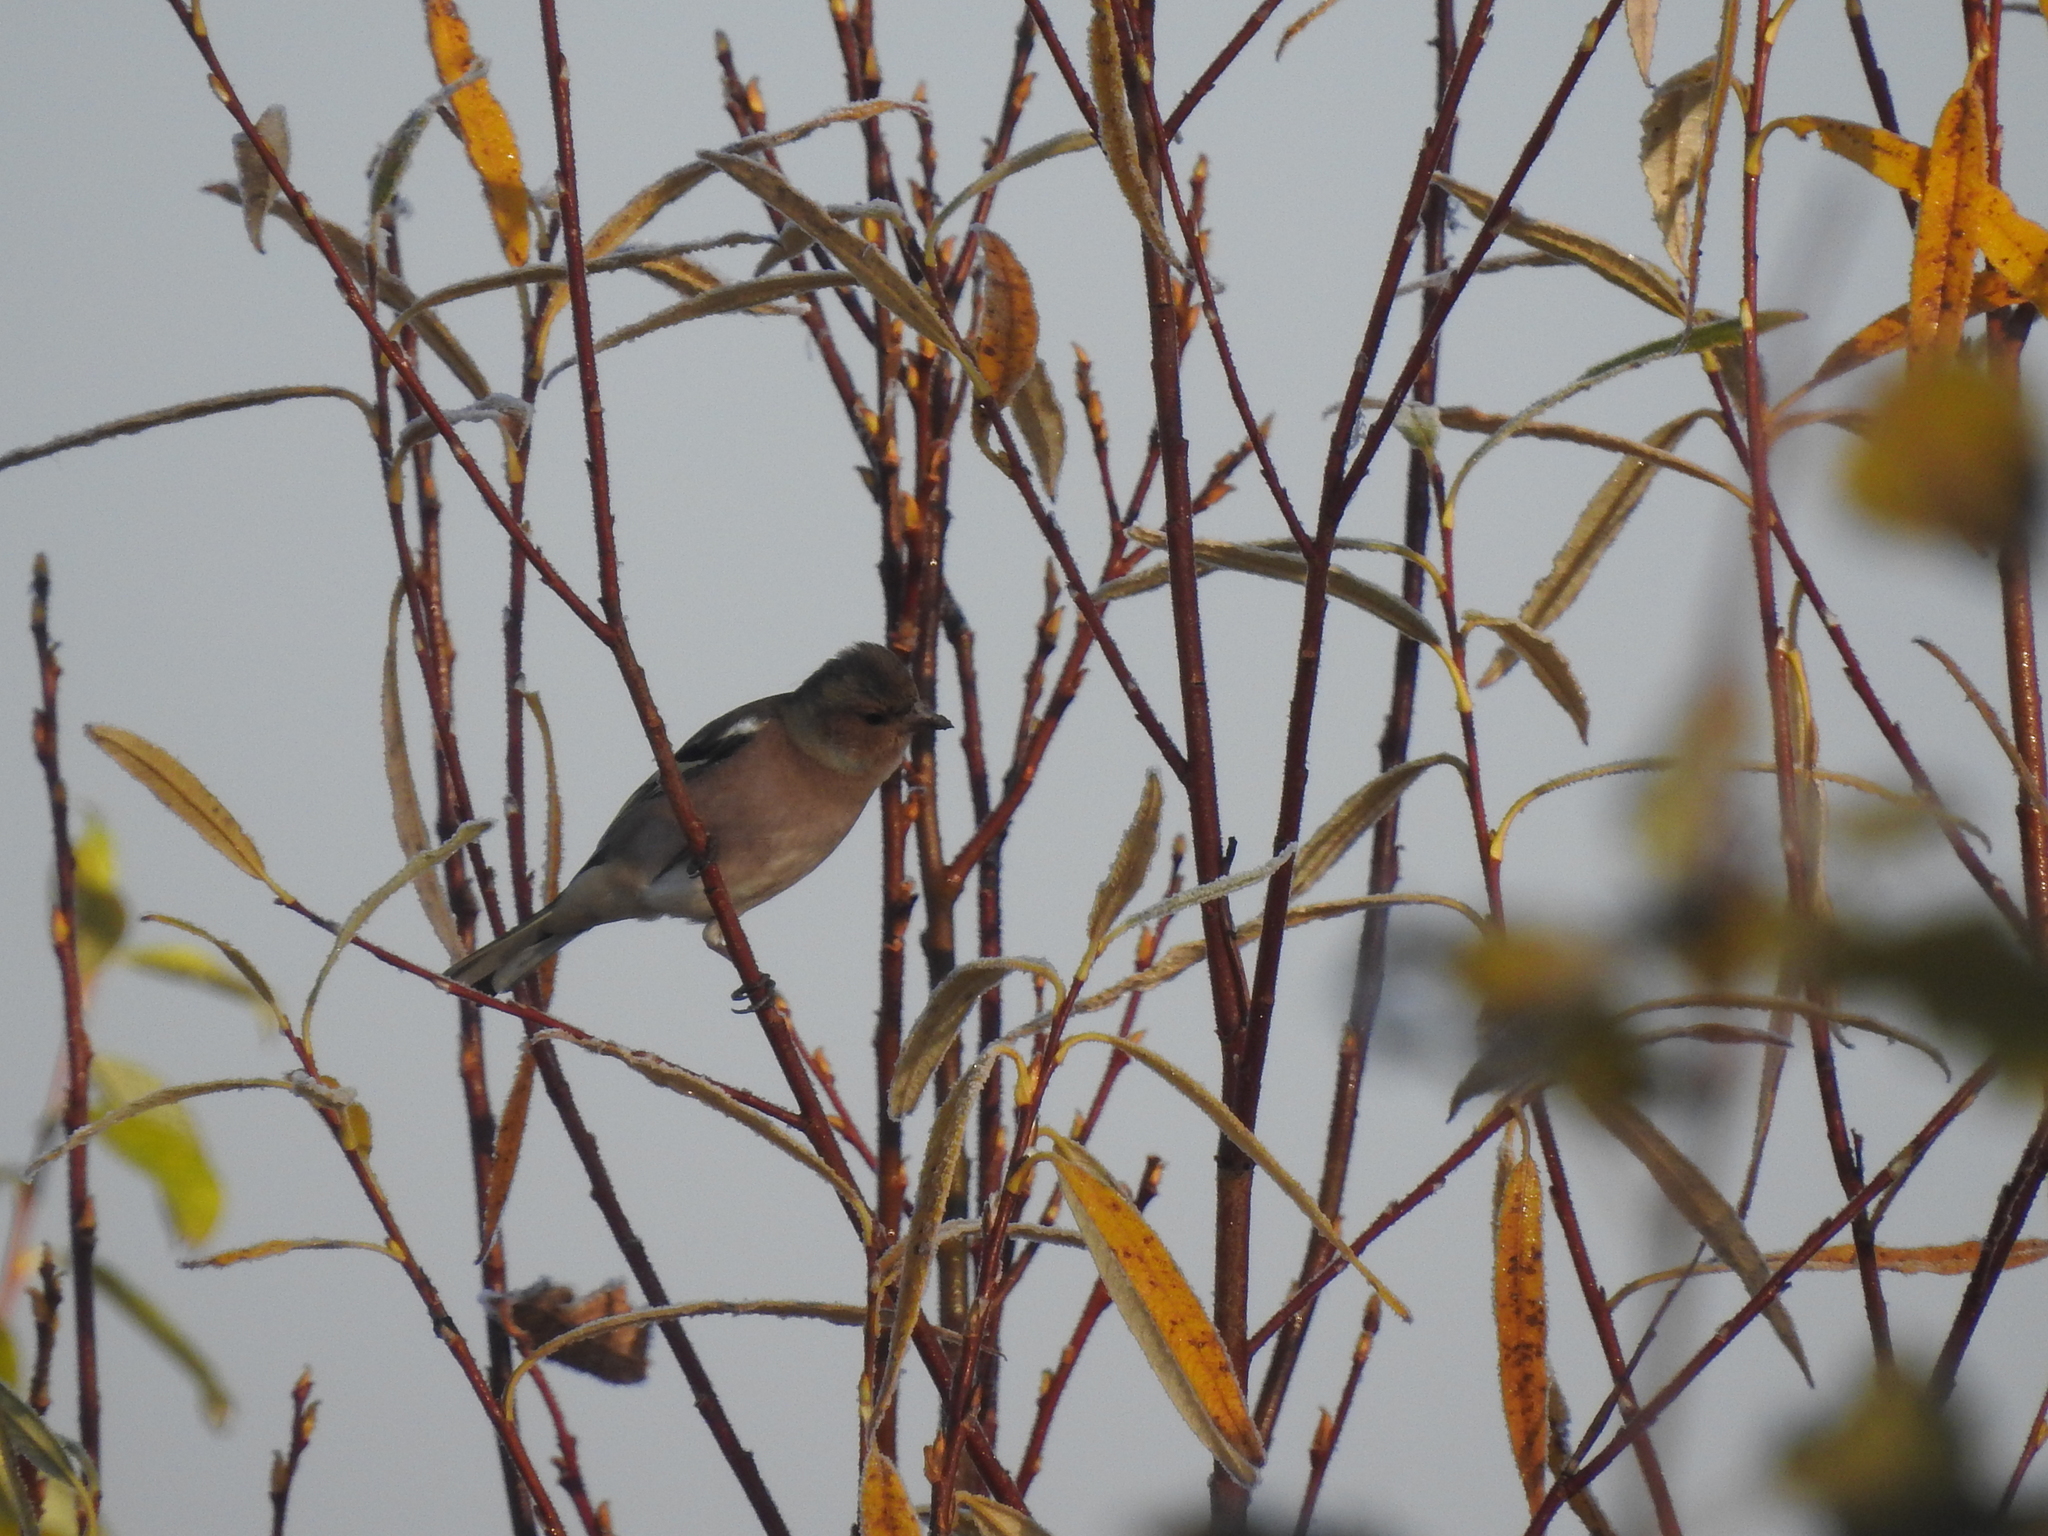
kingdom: Animalia
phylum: Chordata
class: Aves
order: Passeriformes
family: Fringillidae
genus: Fringilla
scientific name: Fringilla coelebs
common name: Common chaffinch
